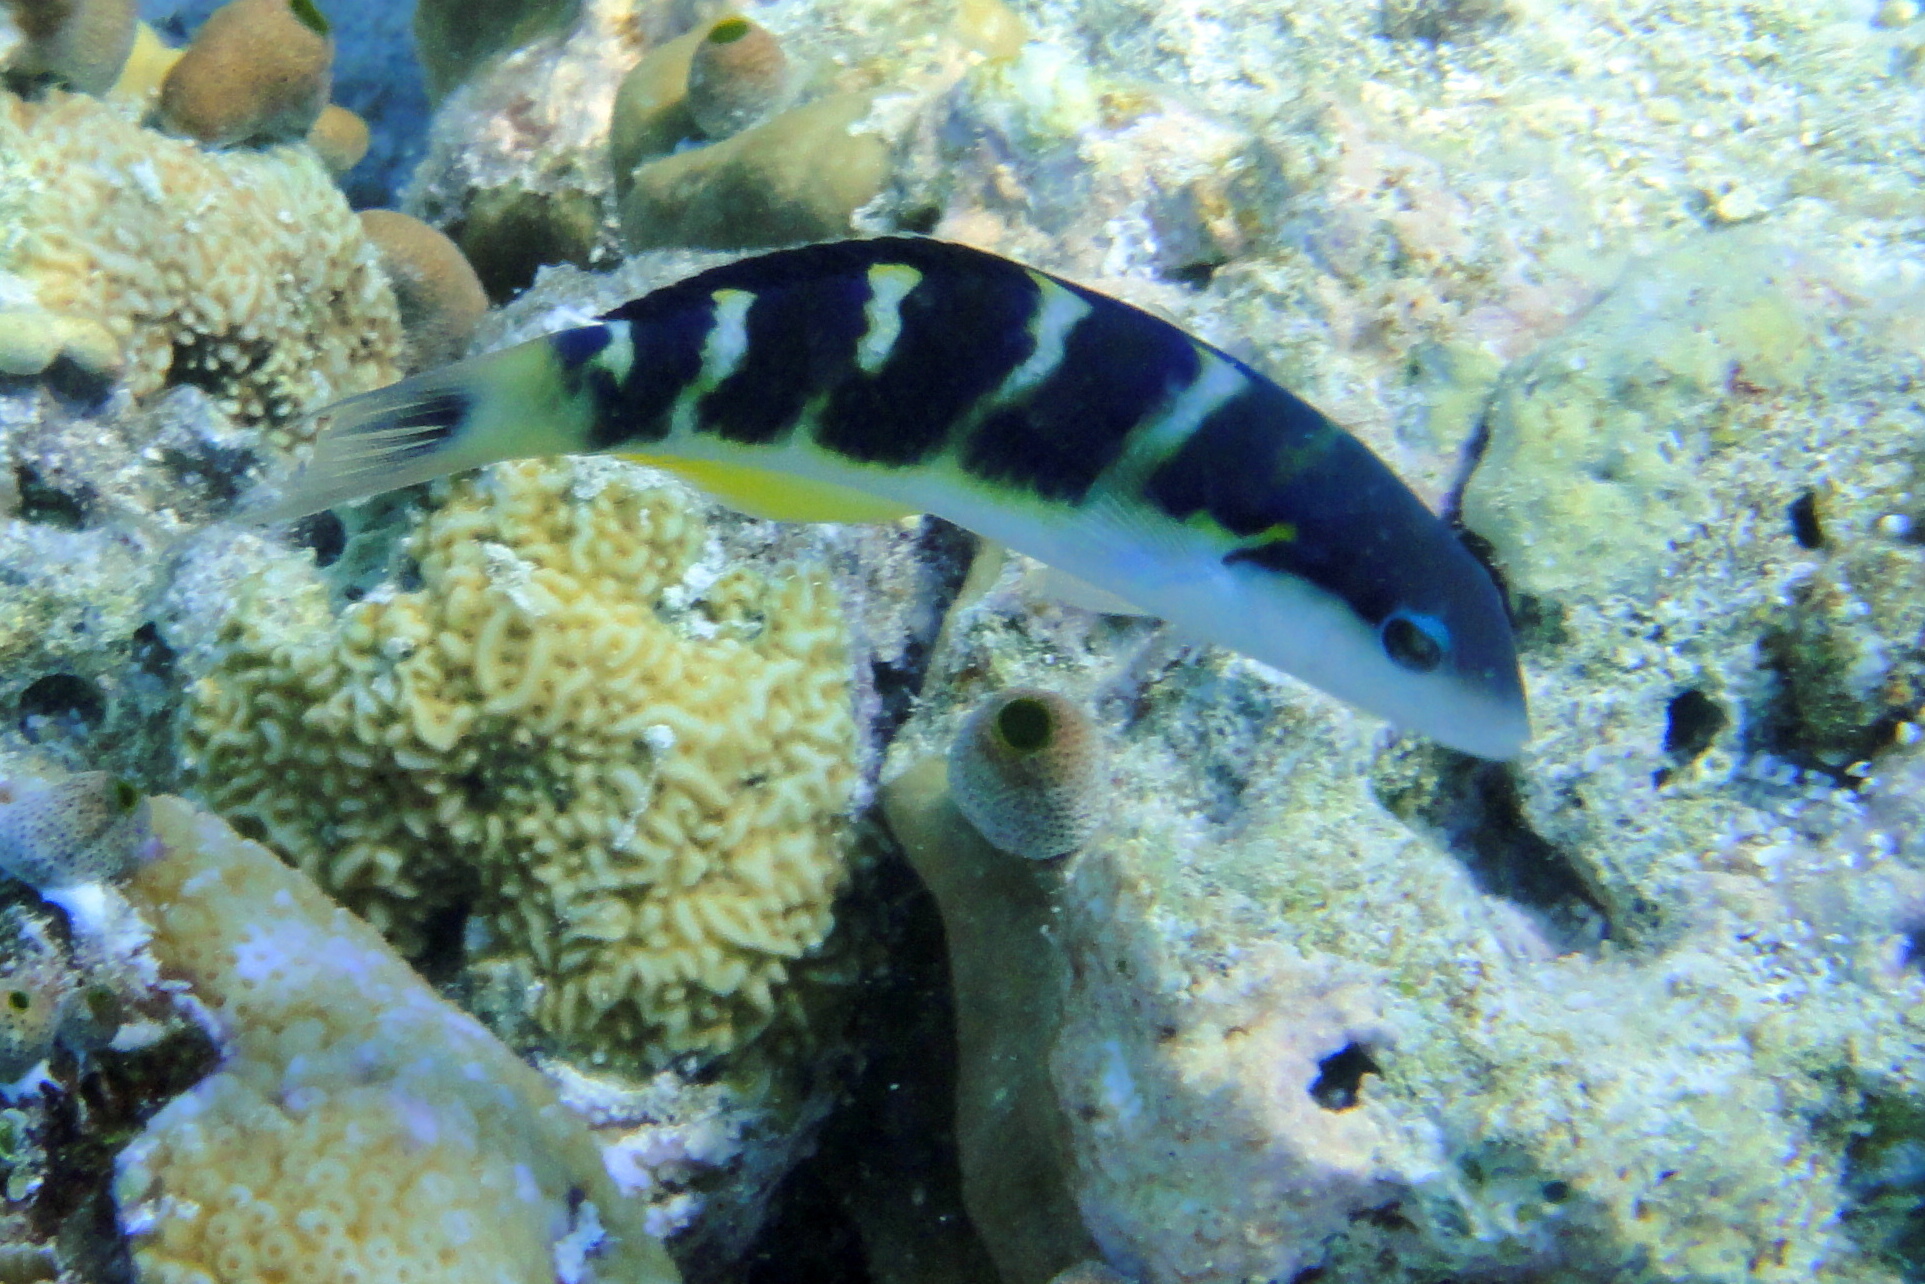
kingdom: Animalia
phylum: Chordata
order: Perciformes
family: Labridae
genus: Thalassoma
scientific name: Thalassoma jansenii
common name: Jansen's wrasse
